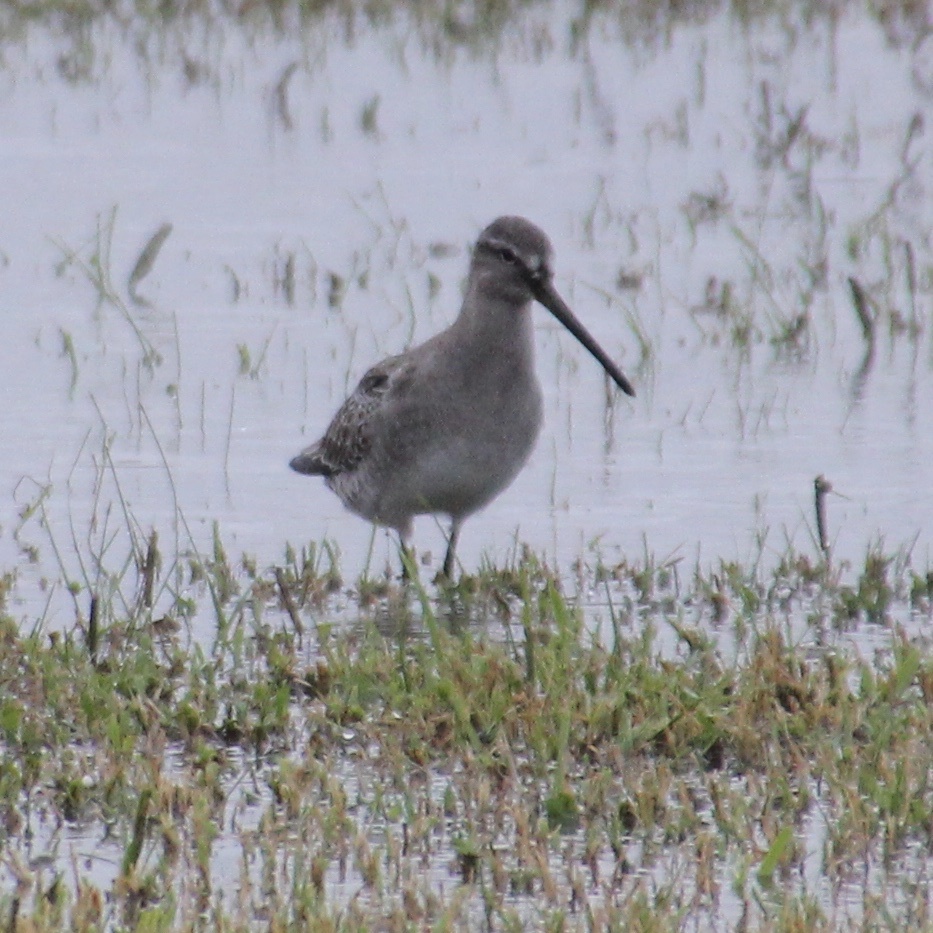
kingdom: Animalia
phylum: Chordata
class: Aves
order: Charadriiformes
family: Scolopacidae
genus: Limnodromus
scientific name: Limnodromus
